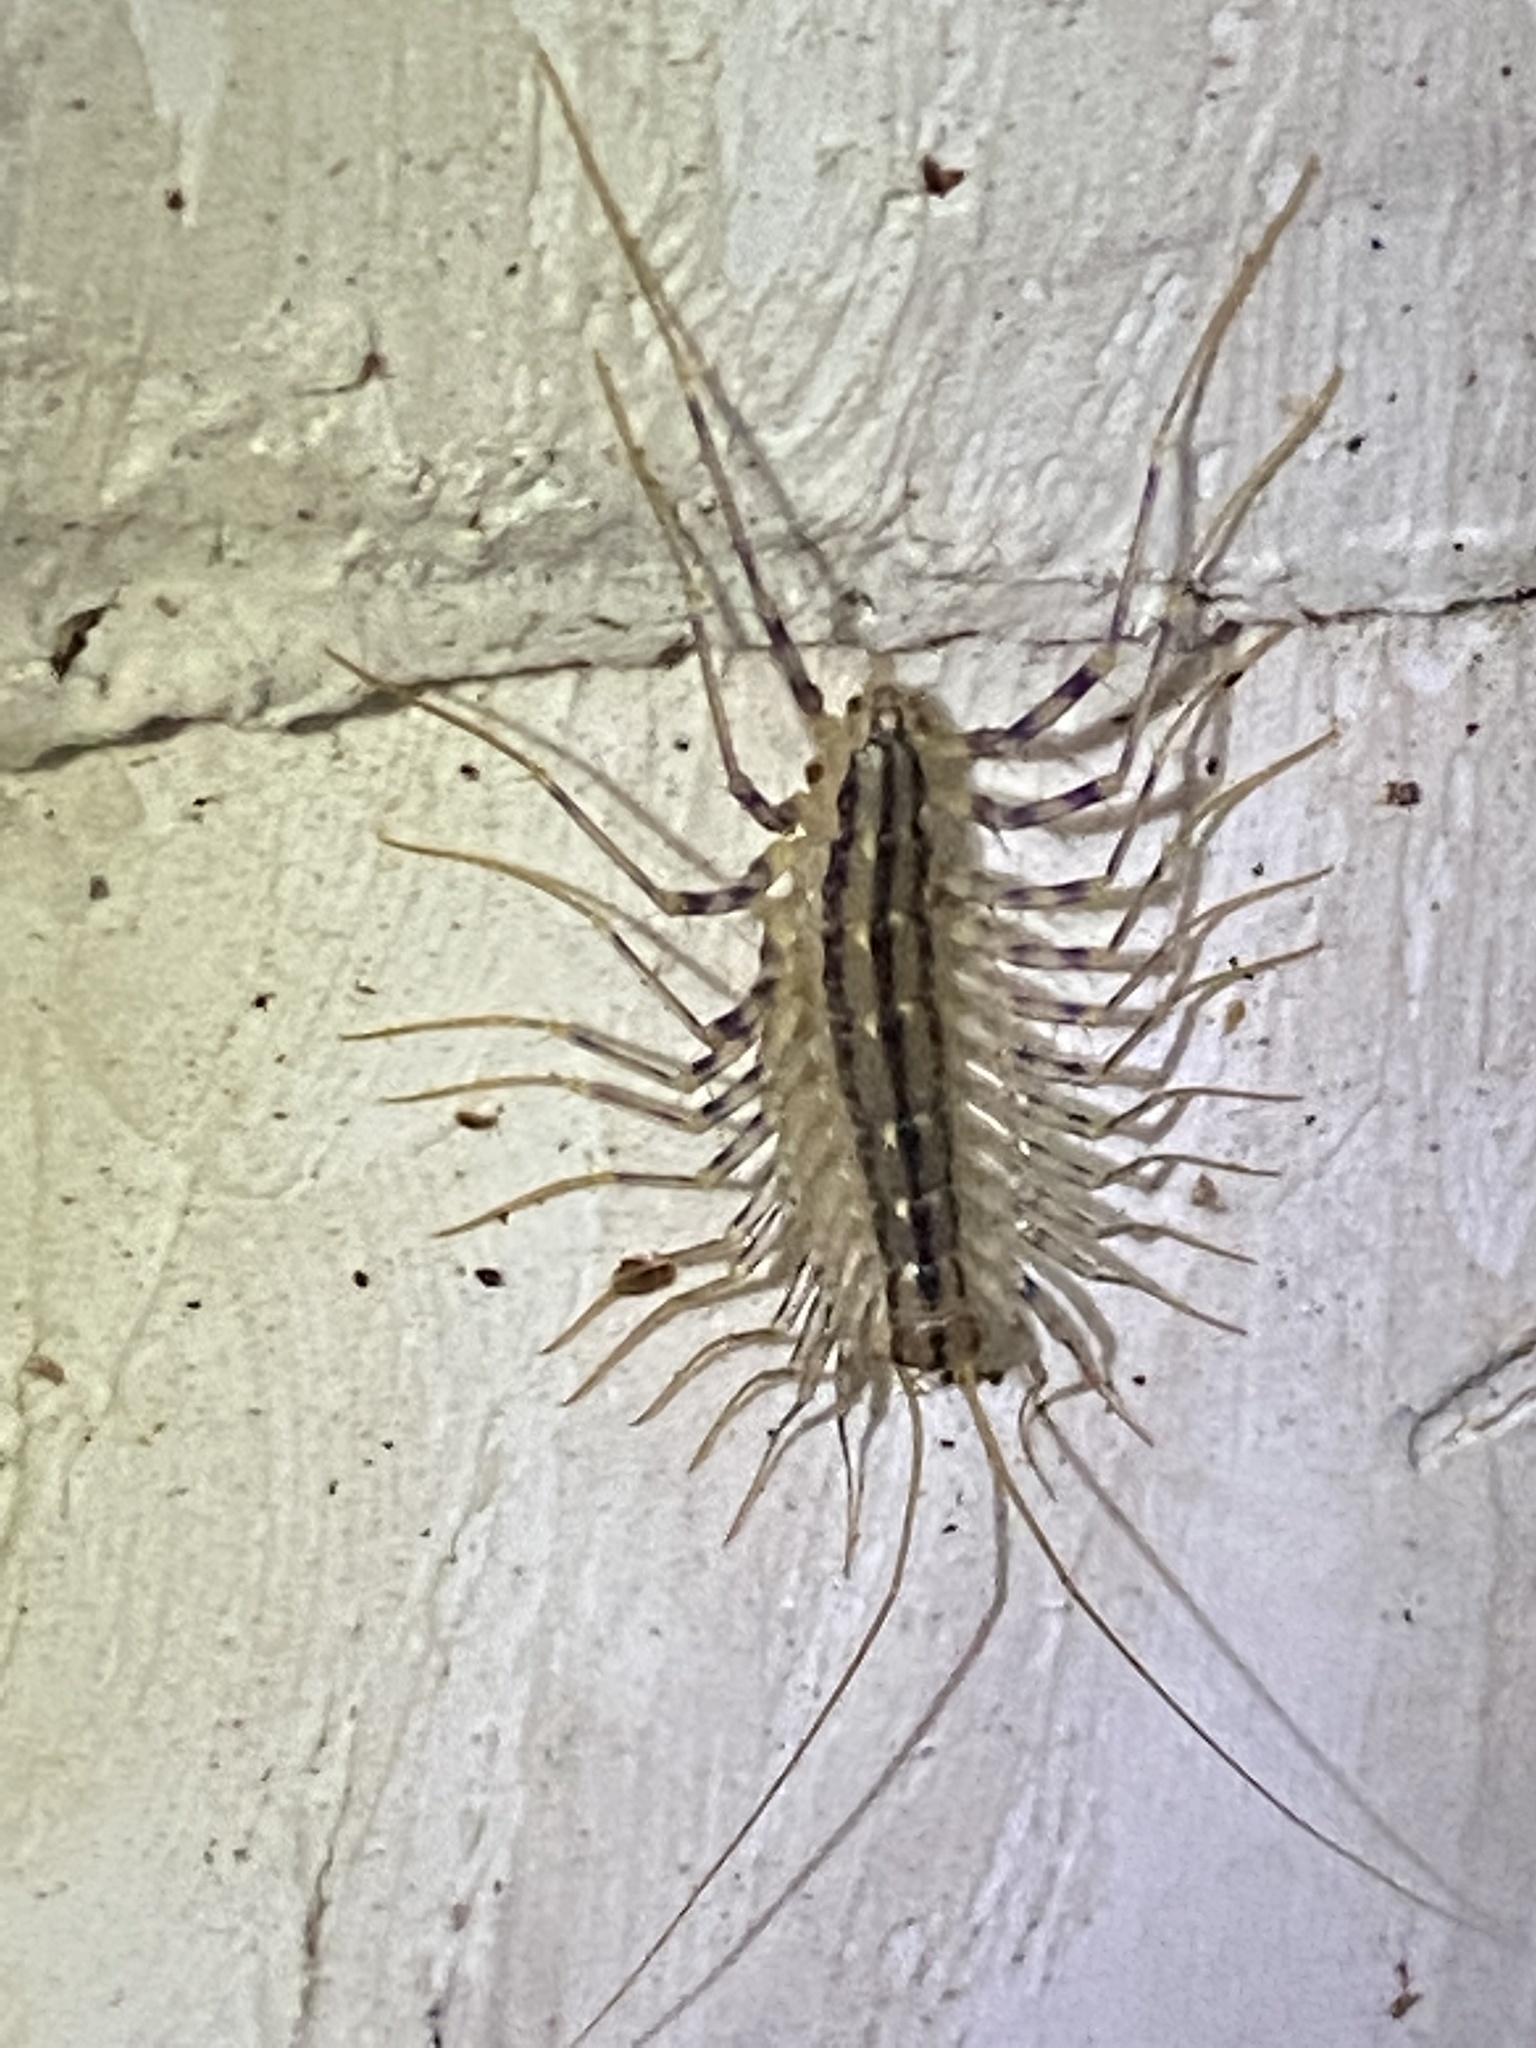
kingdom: Animalia
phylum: Arthropoda
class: Chilopoda
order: Scutigeromorpha
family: Scutigeridae
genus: Scutigera
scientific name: Scutigera coleoptrata
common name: House centipede
